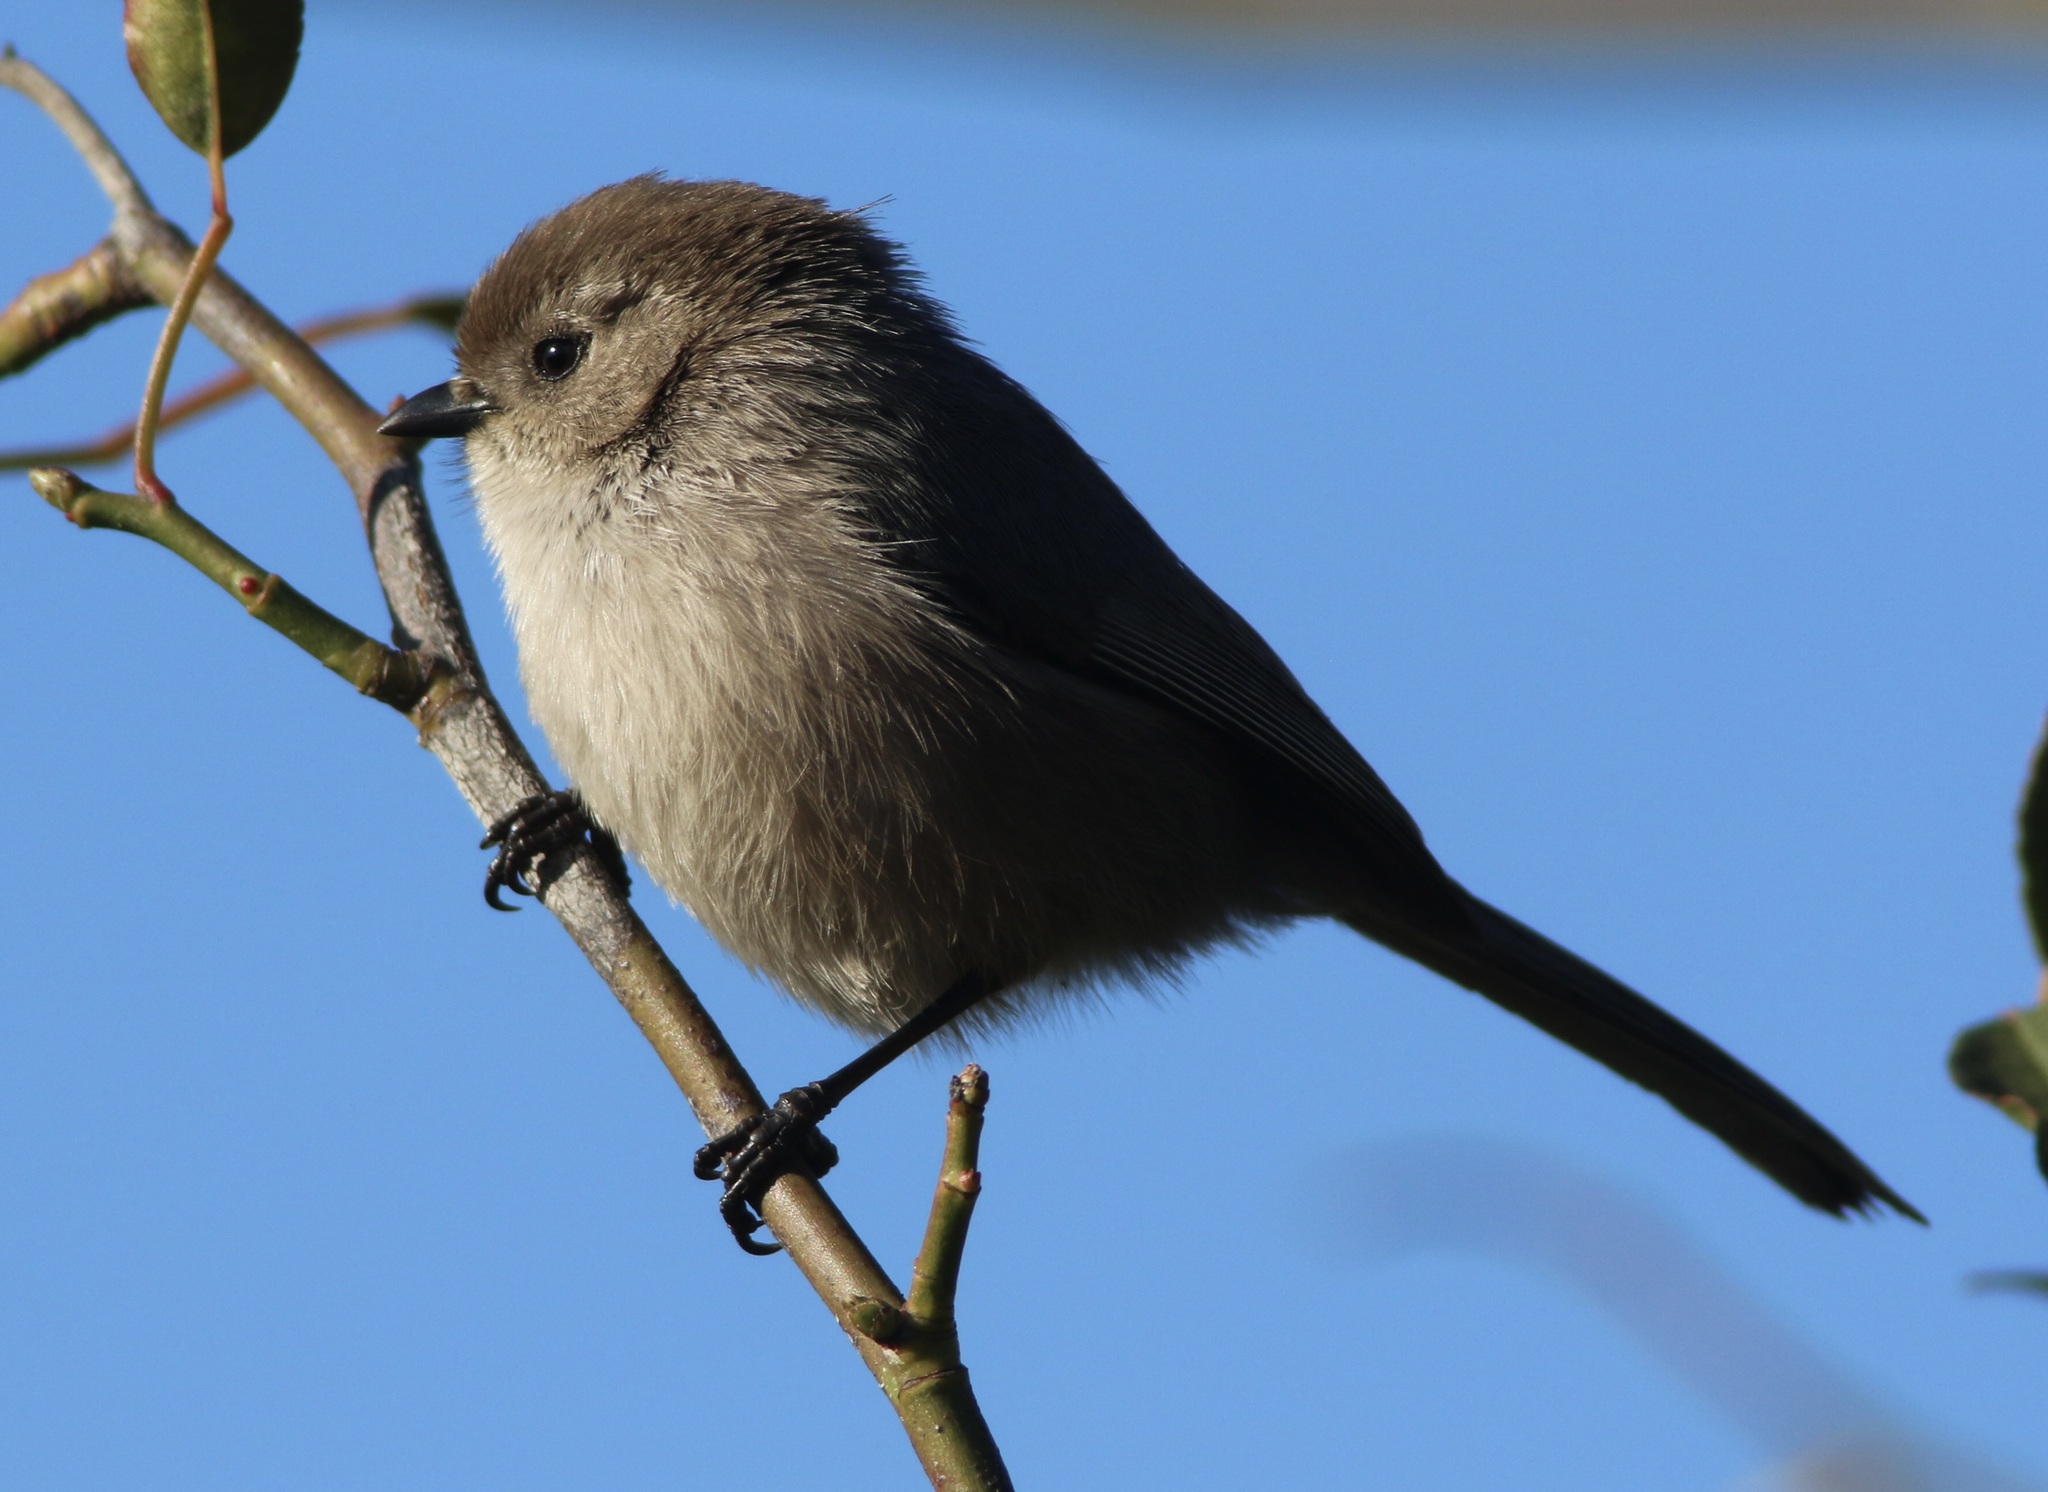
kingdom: Animalia
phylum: Chordata
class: Aves
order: Passeriformes
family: Aegithalidae
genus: Psaltriparus
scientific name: Psaltriparus minimus
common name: American bushtit
